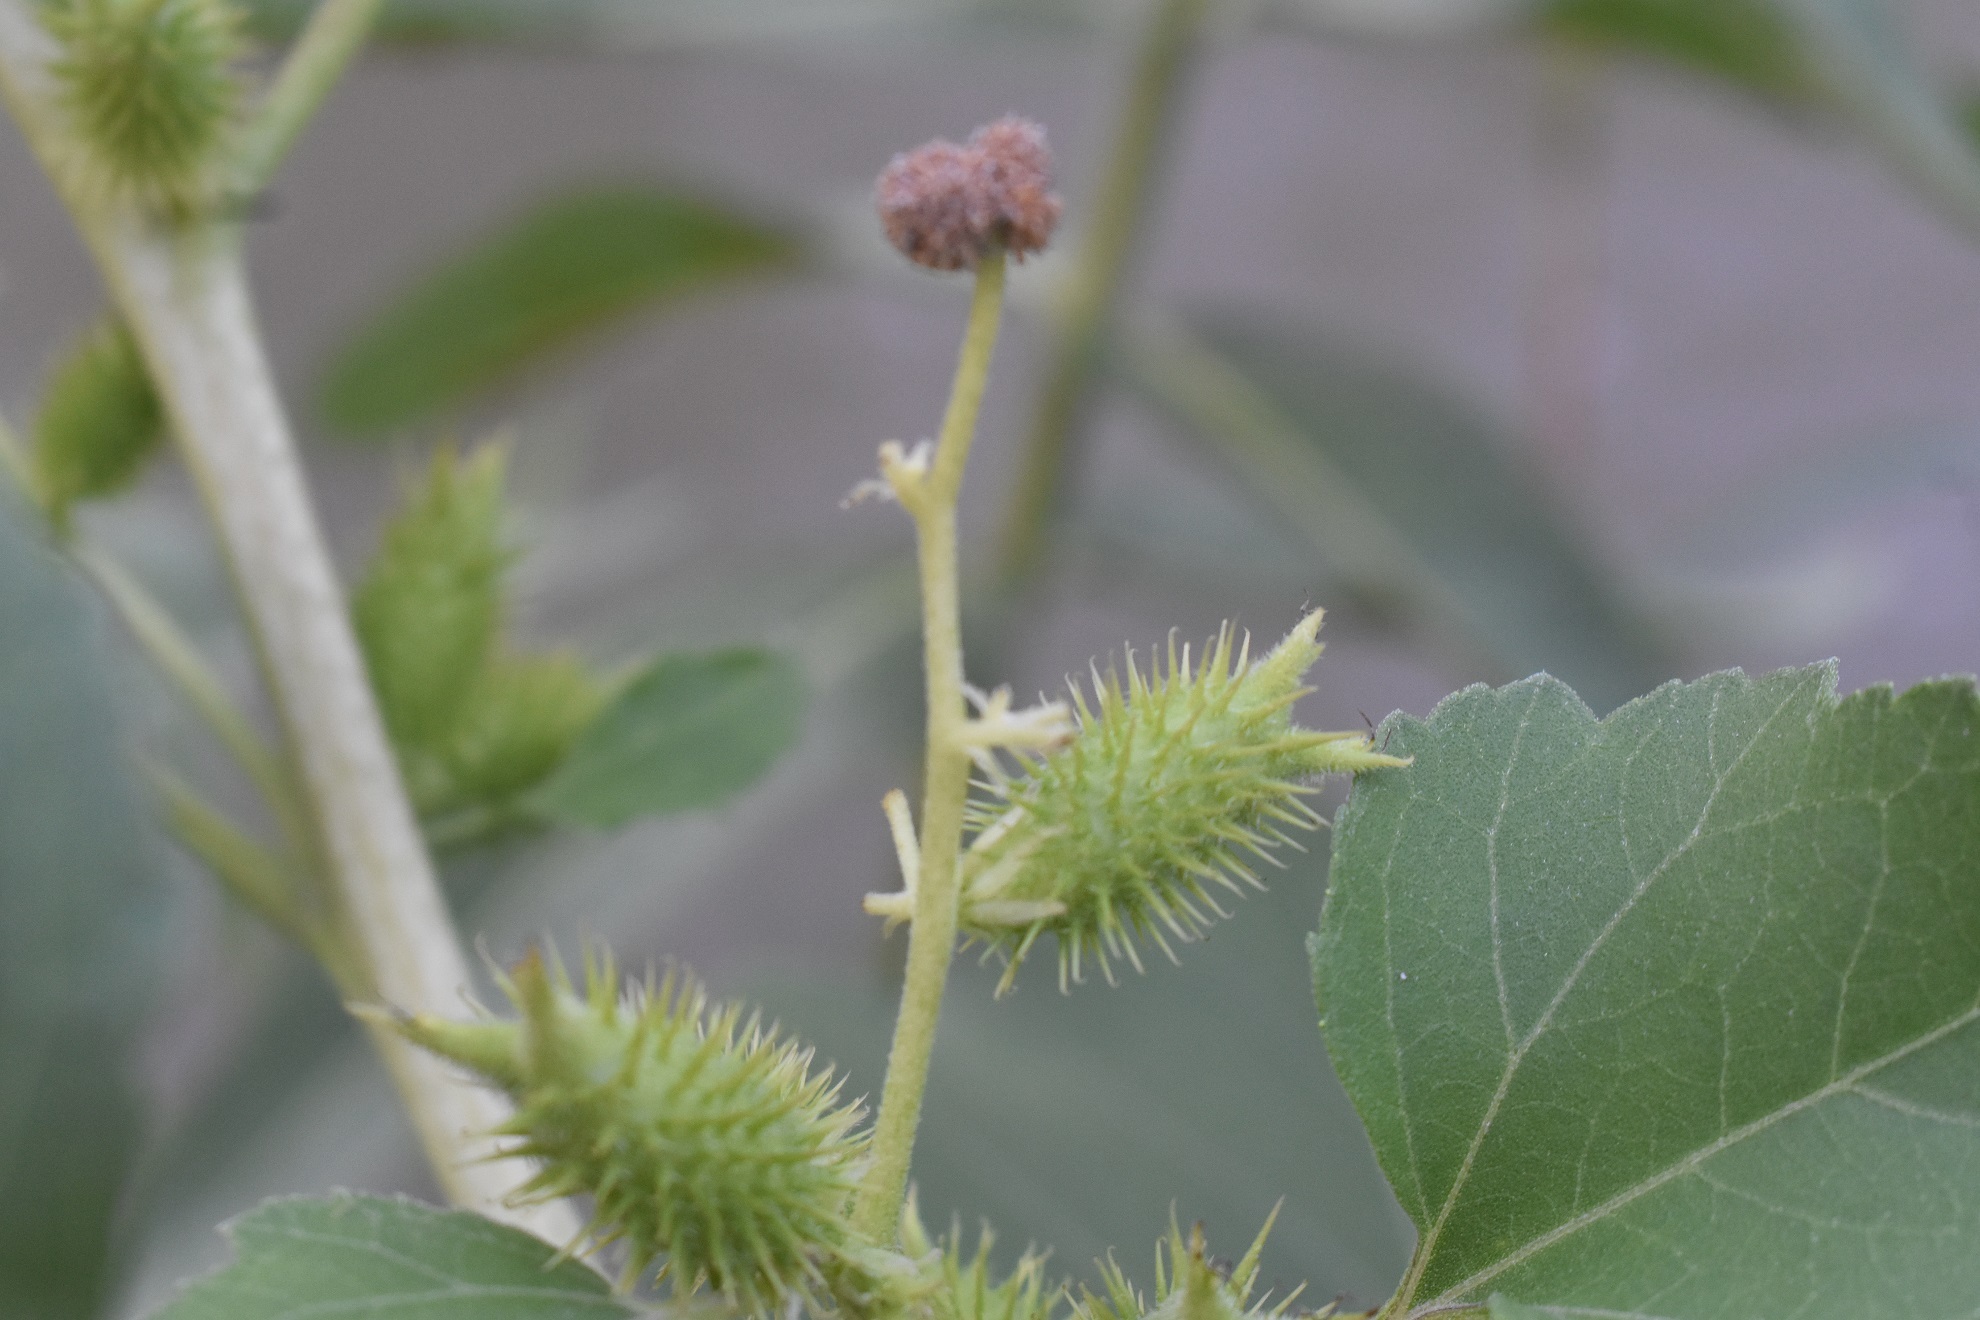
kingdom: Plantae
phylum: Tracheophyta
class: Magnoliopsida
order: Asterales
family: Asteraceae
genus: Xanthium
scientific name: Xanthium strumarium
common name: Rough cocklebur
